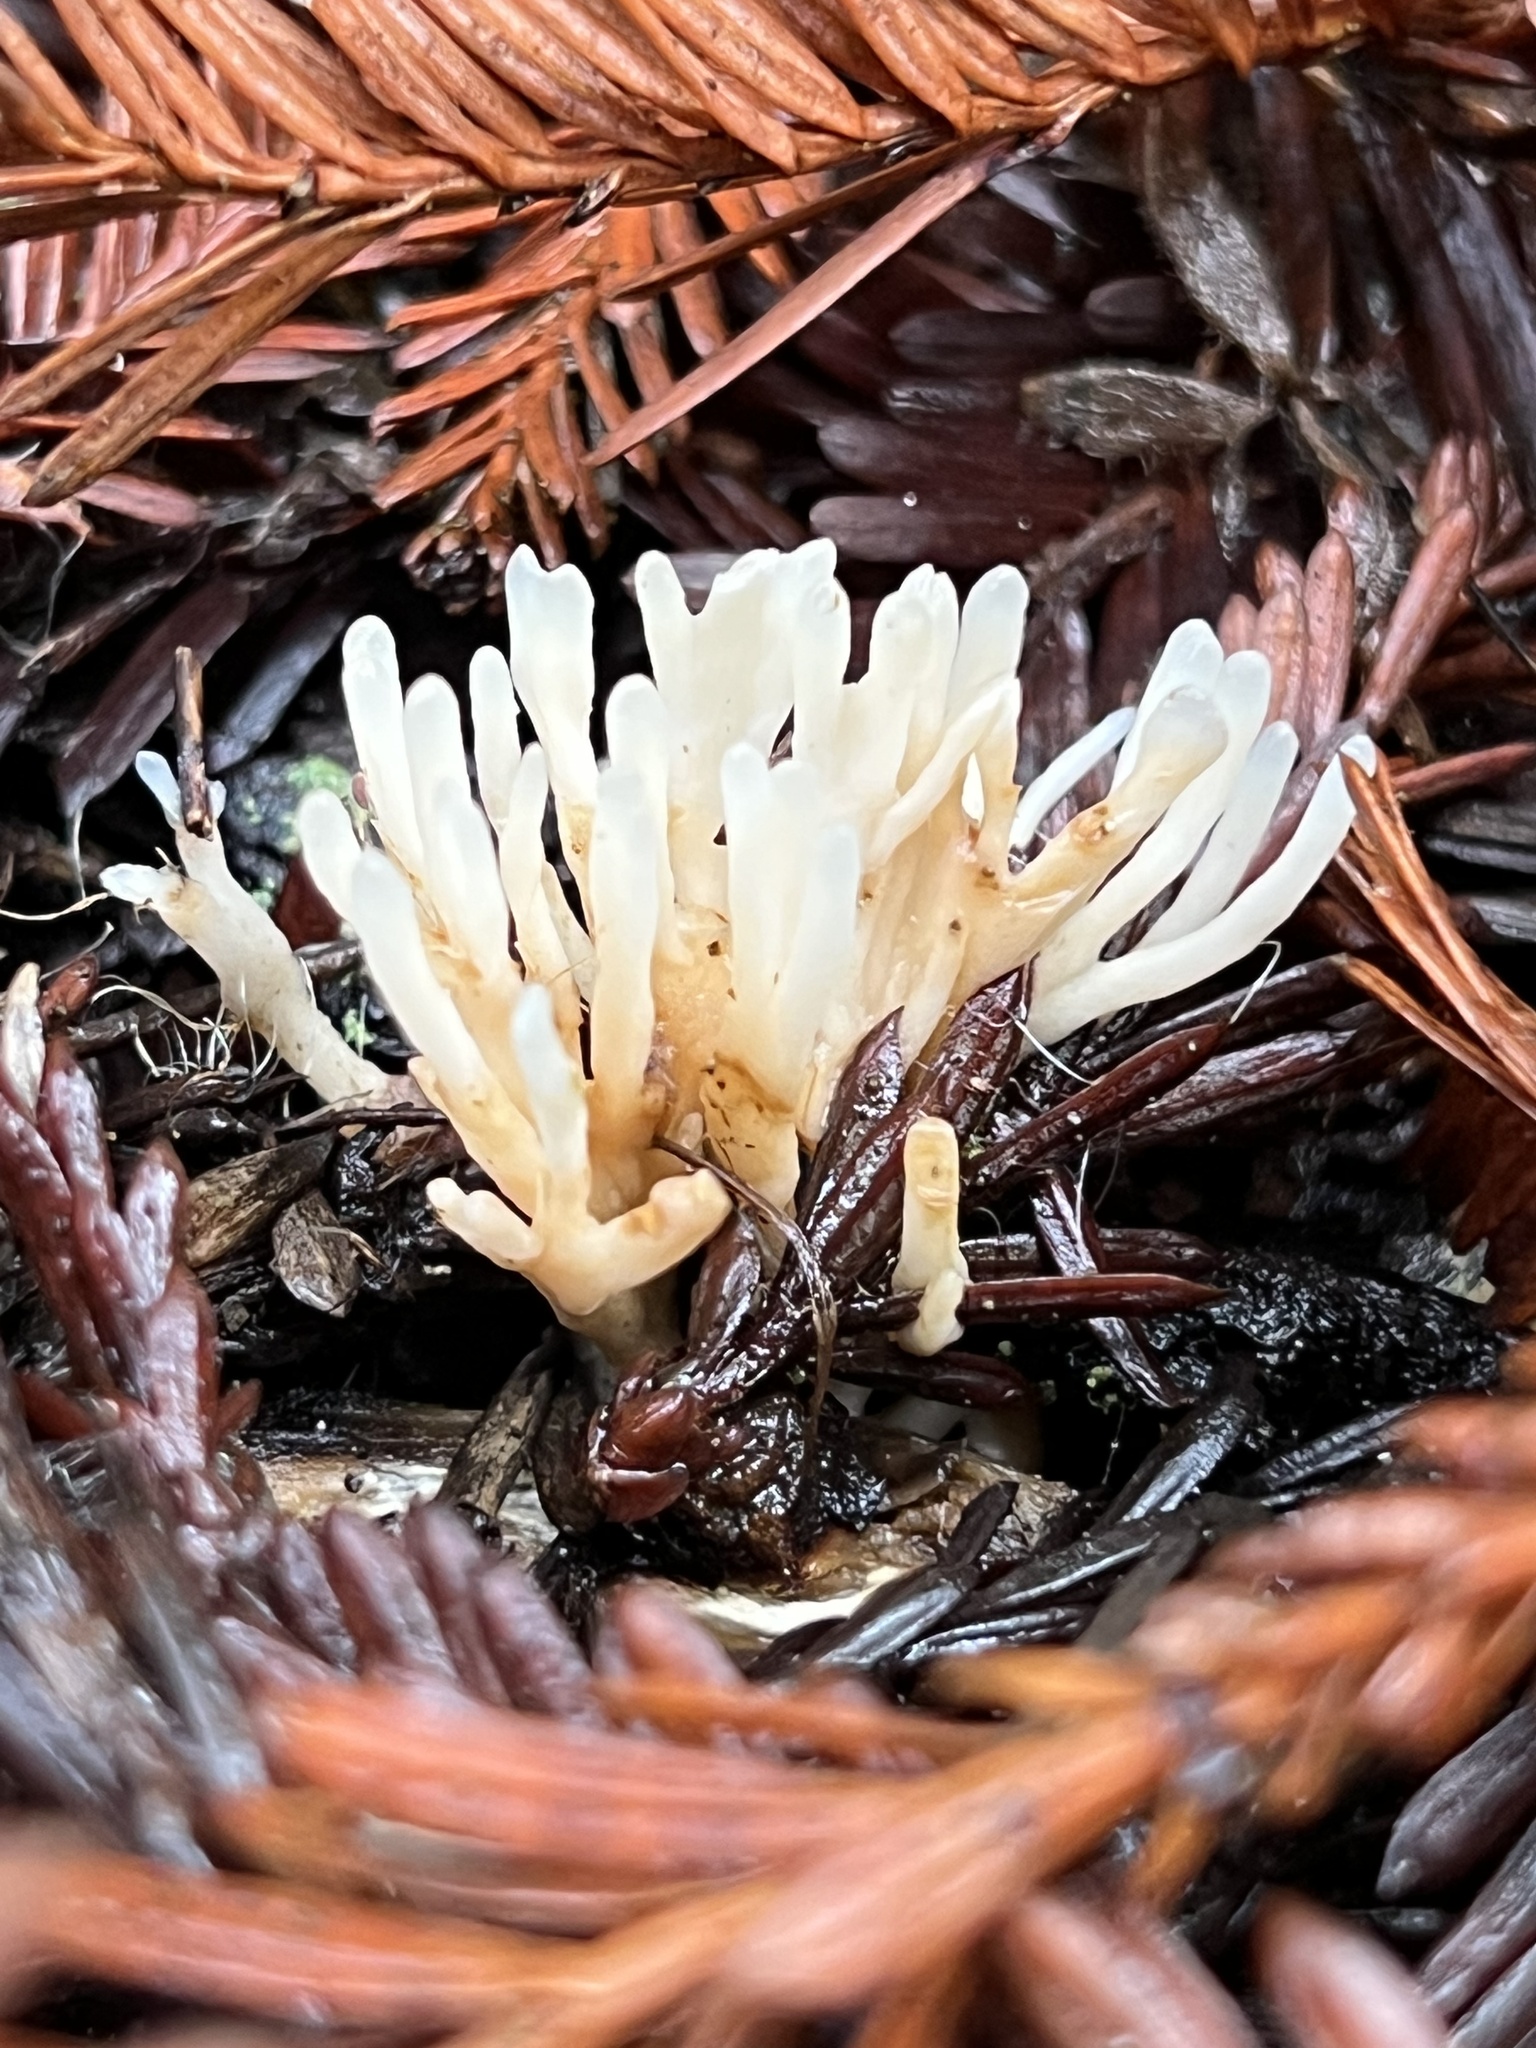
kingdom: Fungi
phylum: Basidiomycota
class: Agaricomycetes
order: Tremellodendropsidales
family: Tremellodendropsidaceae
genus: Tremellodendropsis
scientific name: Tremellodendropsis tuberosa
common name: Ashen coral
